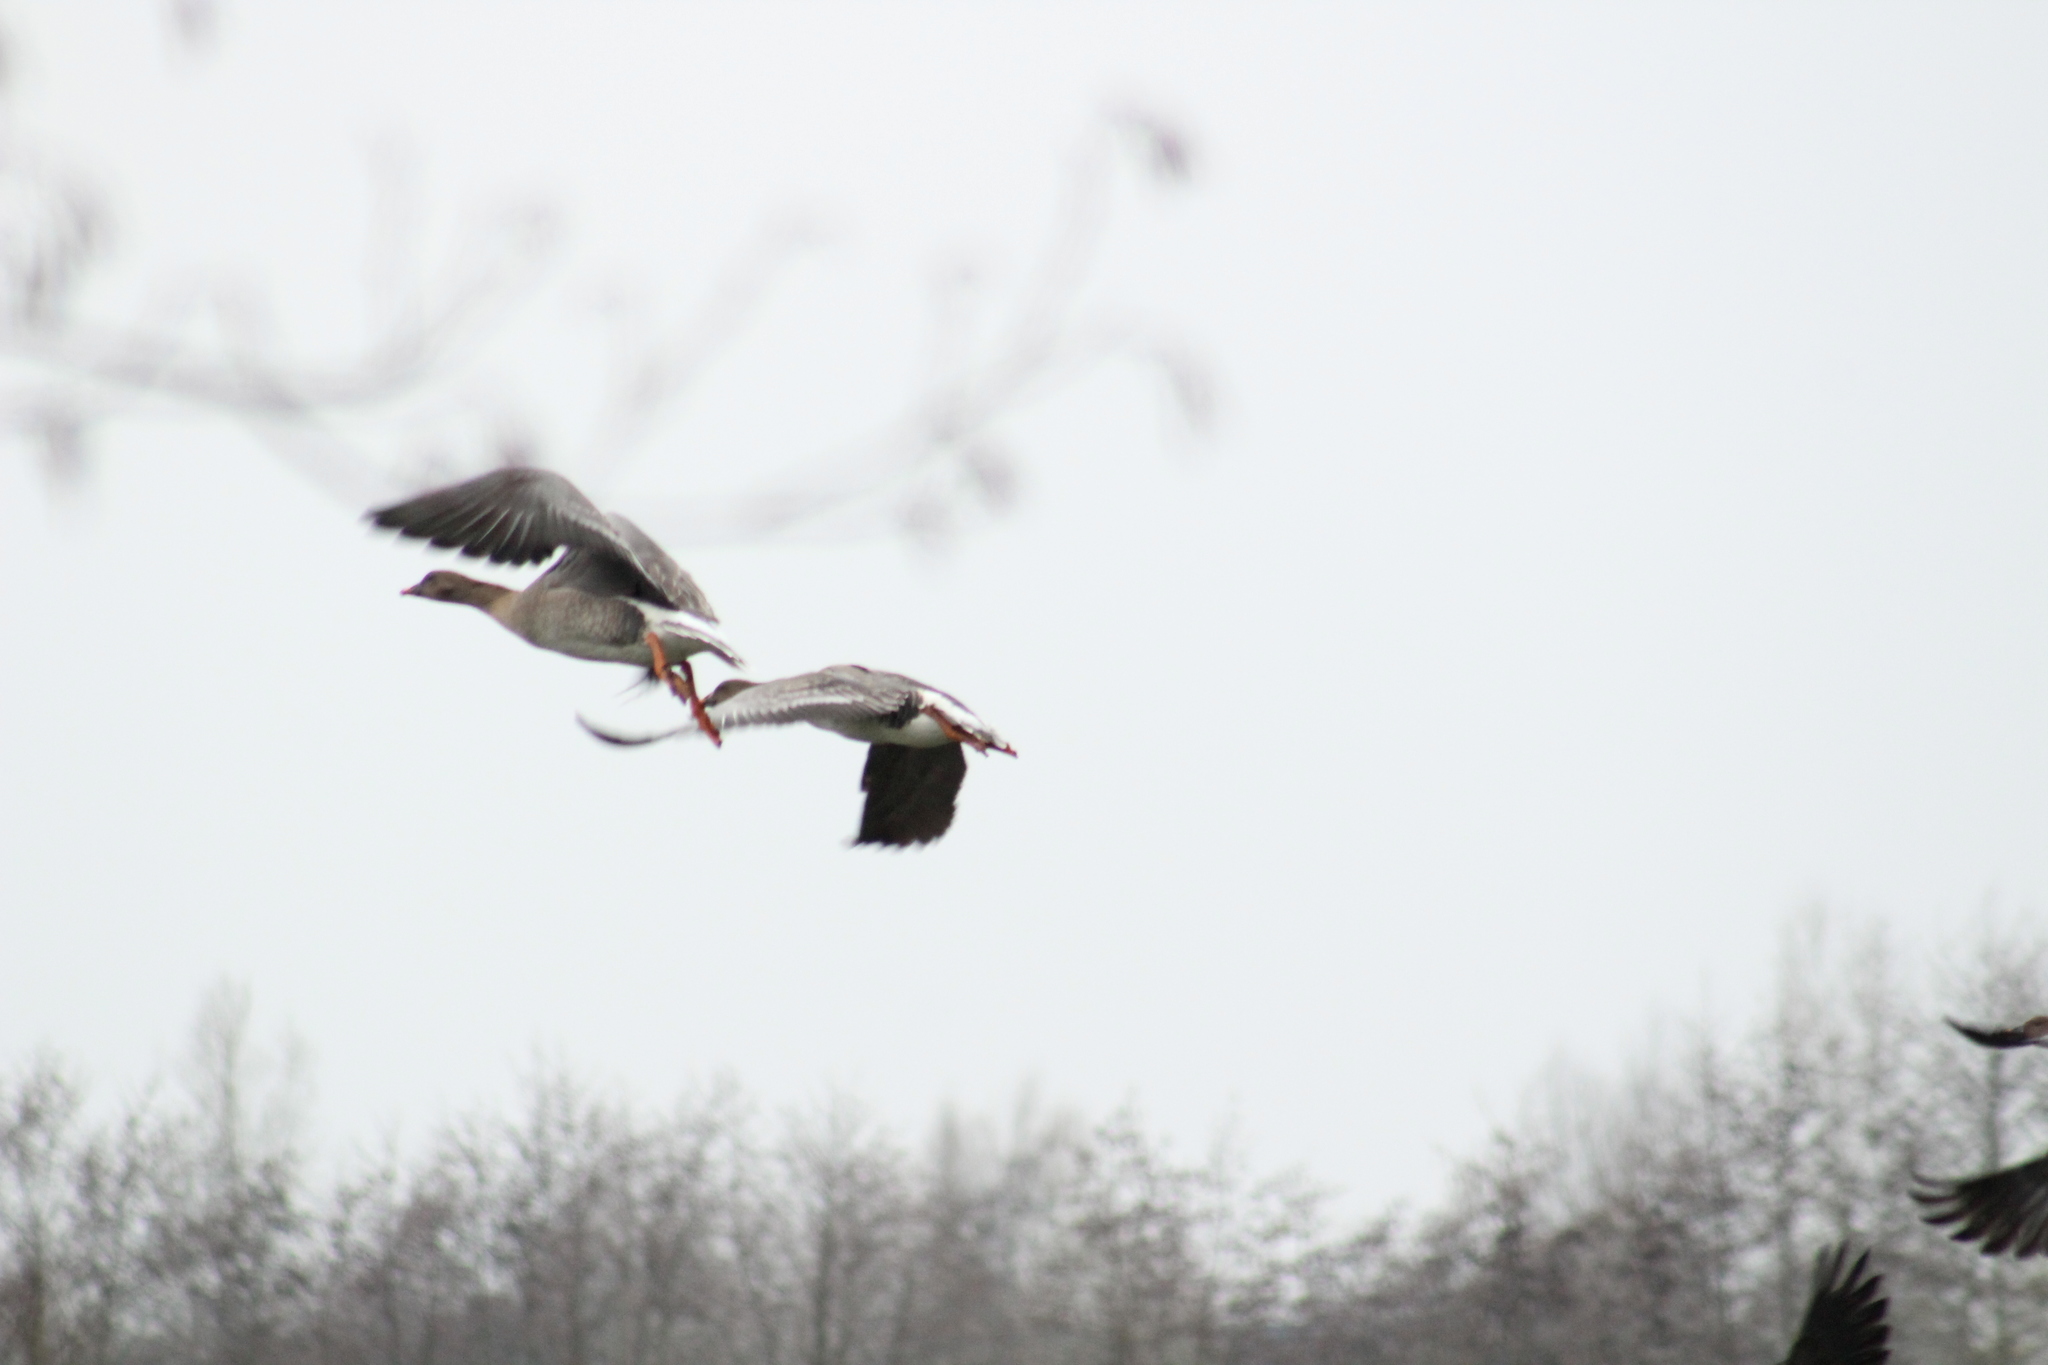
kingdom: Animalia
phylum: Chordata
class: Aves
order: Anseriformes
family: Anatidae
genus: Anser
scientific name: Anser serrirostris
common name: Tundra bean goose
